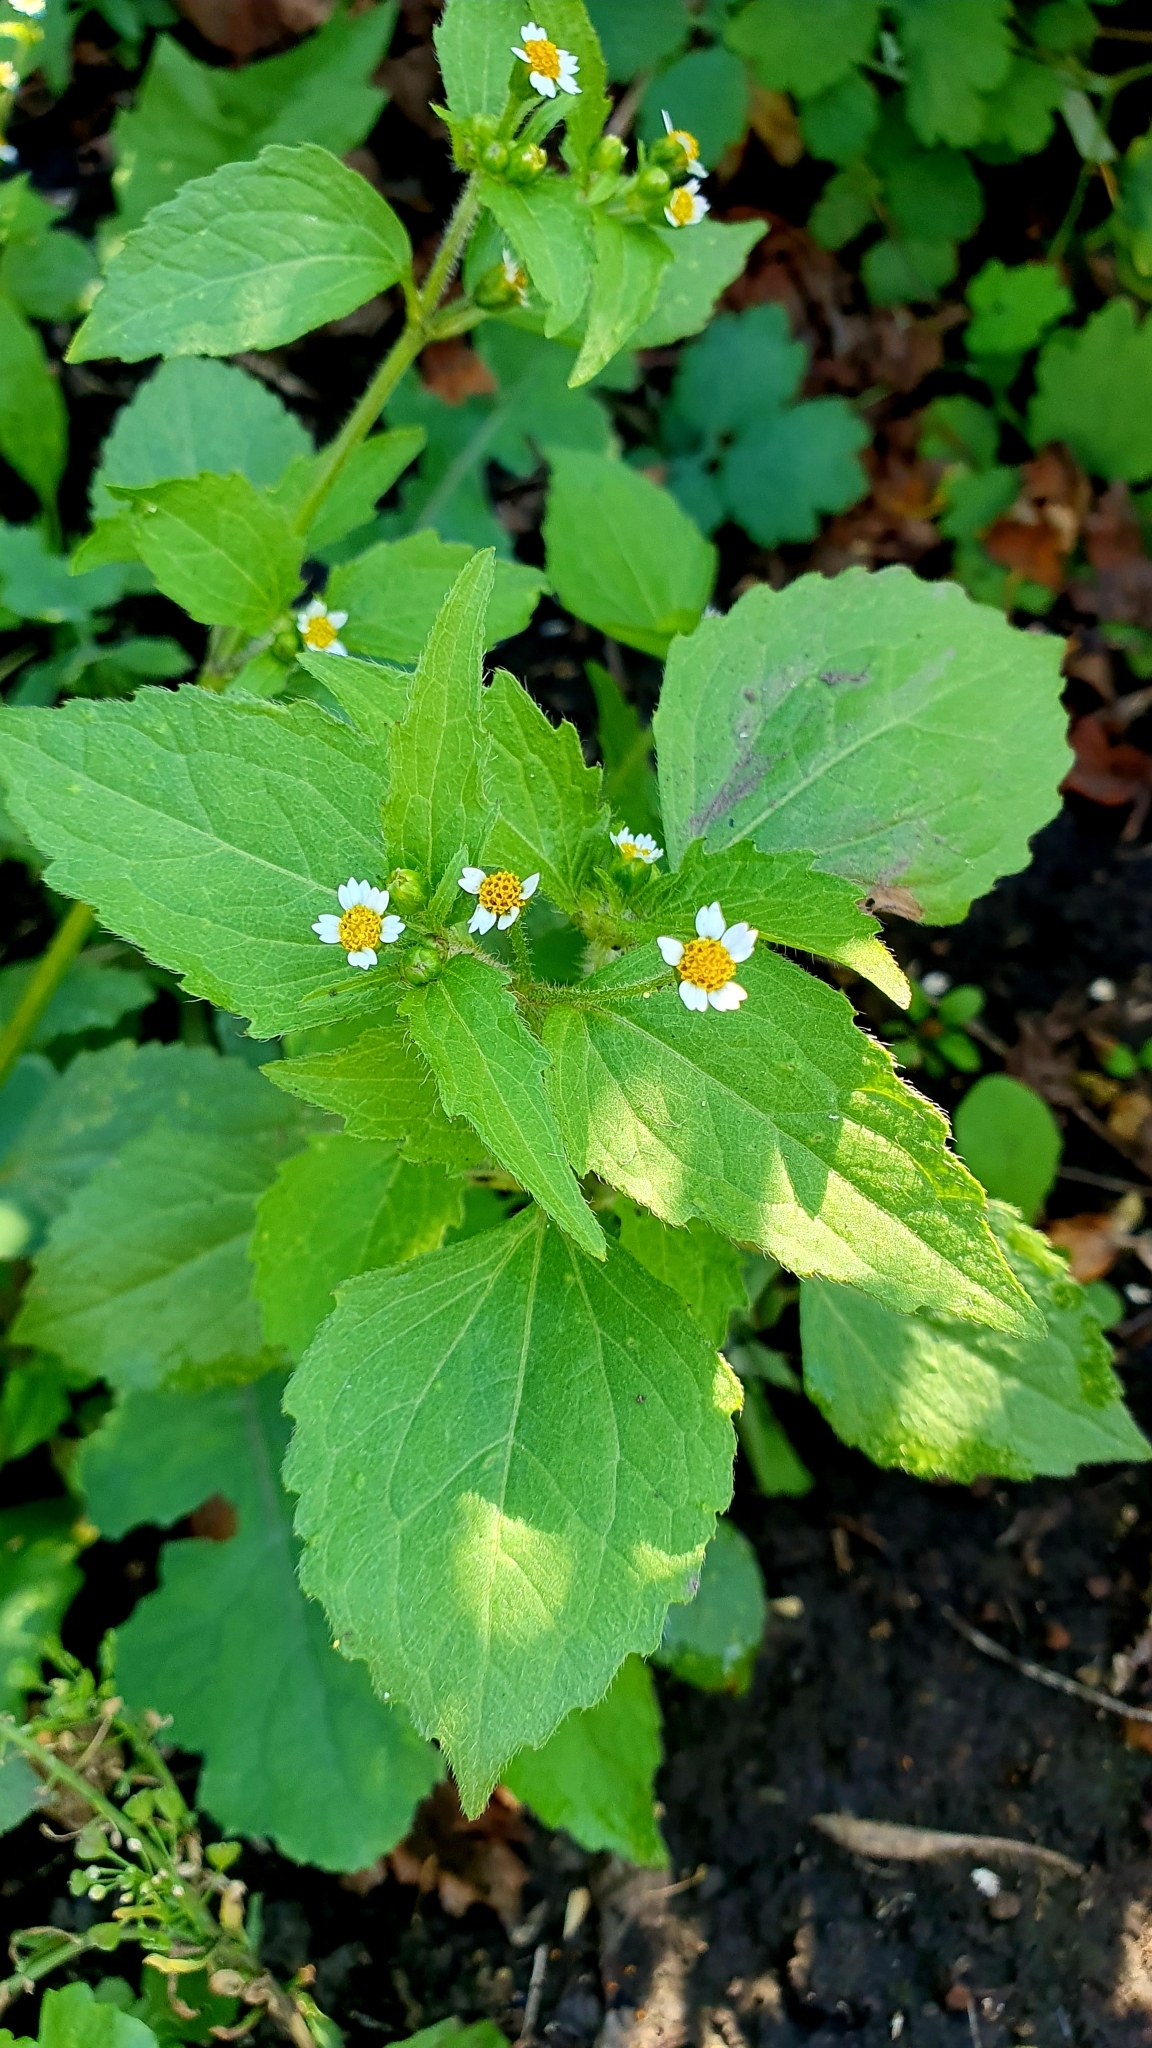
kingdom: Plantae
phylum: Tracheophyta
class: Magnoliopsida
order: Asterales
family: Asteraceae
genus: Galinsoga
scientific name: Galinsoga quadriradiata
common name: Shaggy soldier
